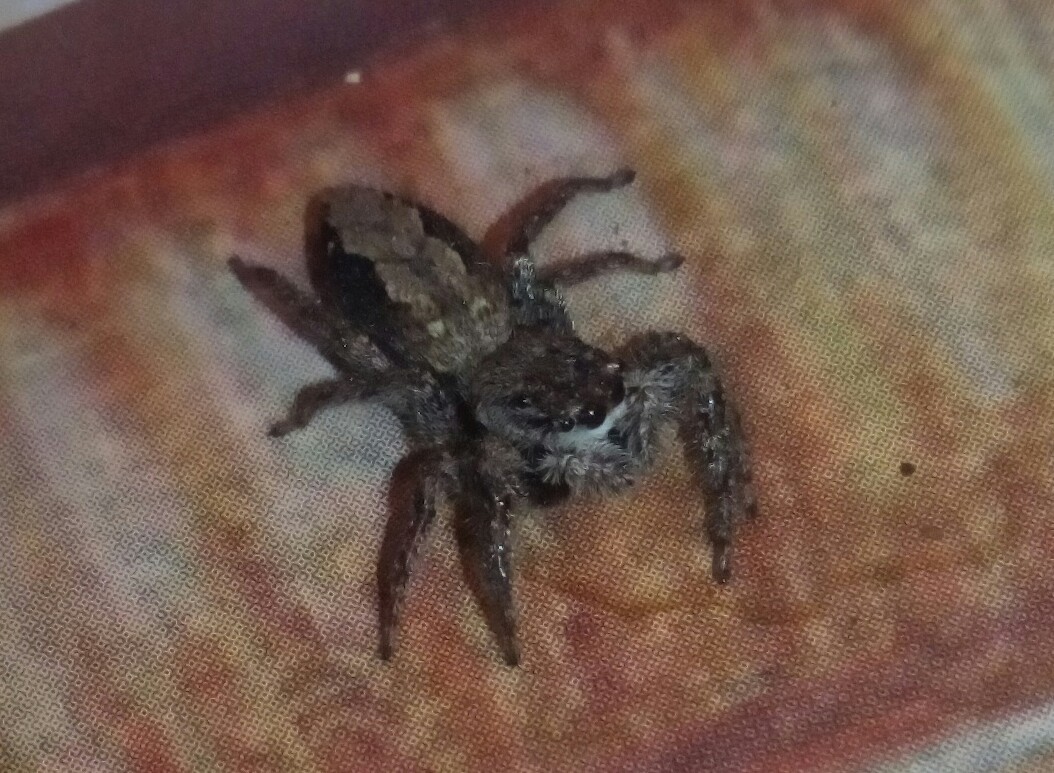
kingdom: Animalia
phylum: Arthropoda
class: Arachnida
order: Araneae
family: Salticidae
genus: Platycryptus
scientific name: Platycryptus undatus
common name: Tan jumping spider
